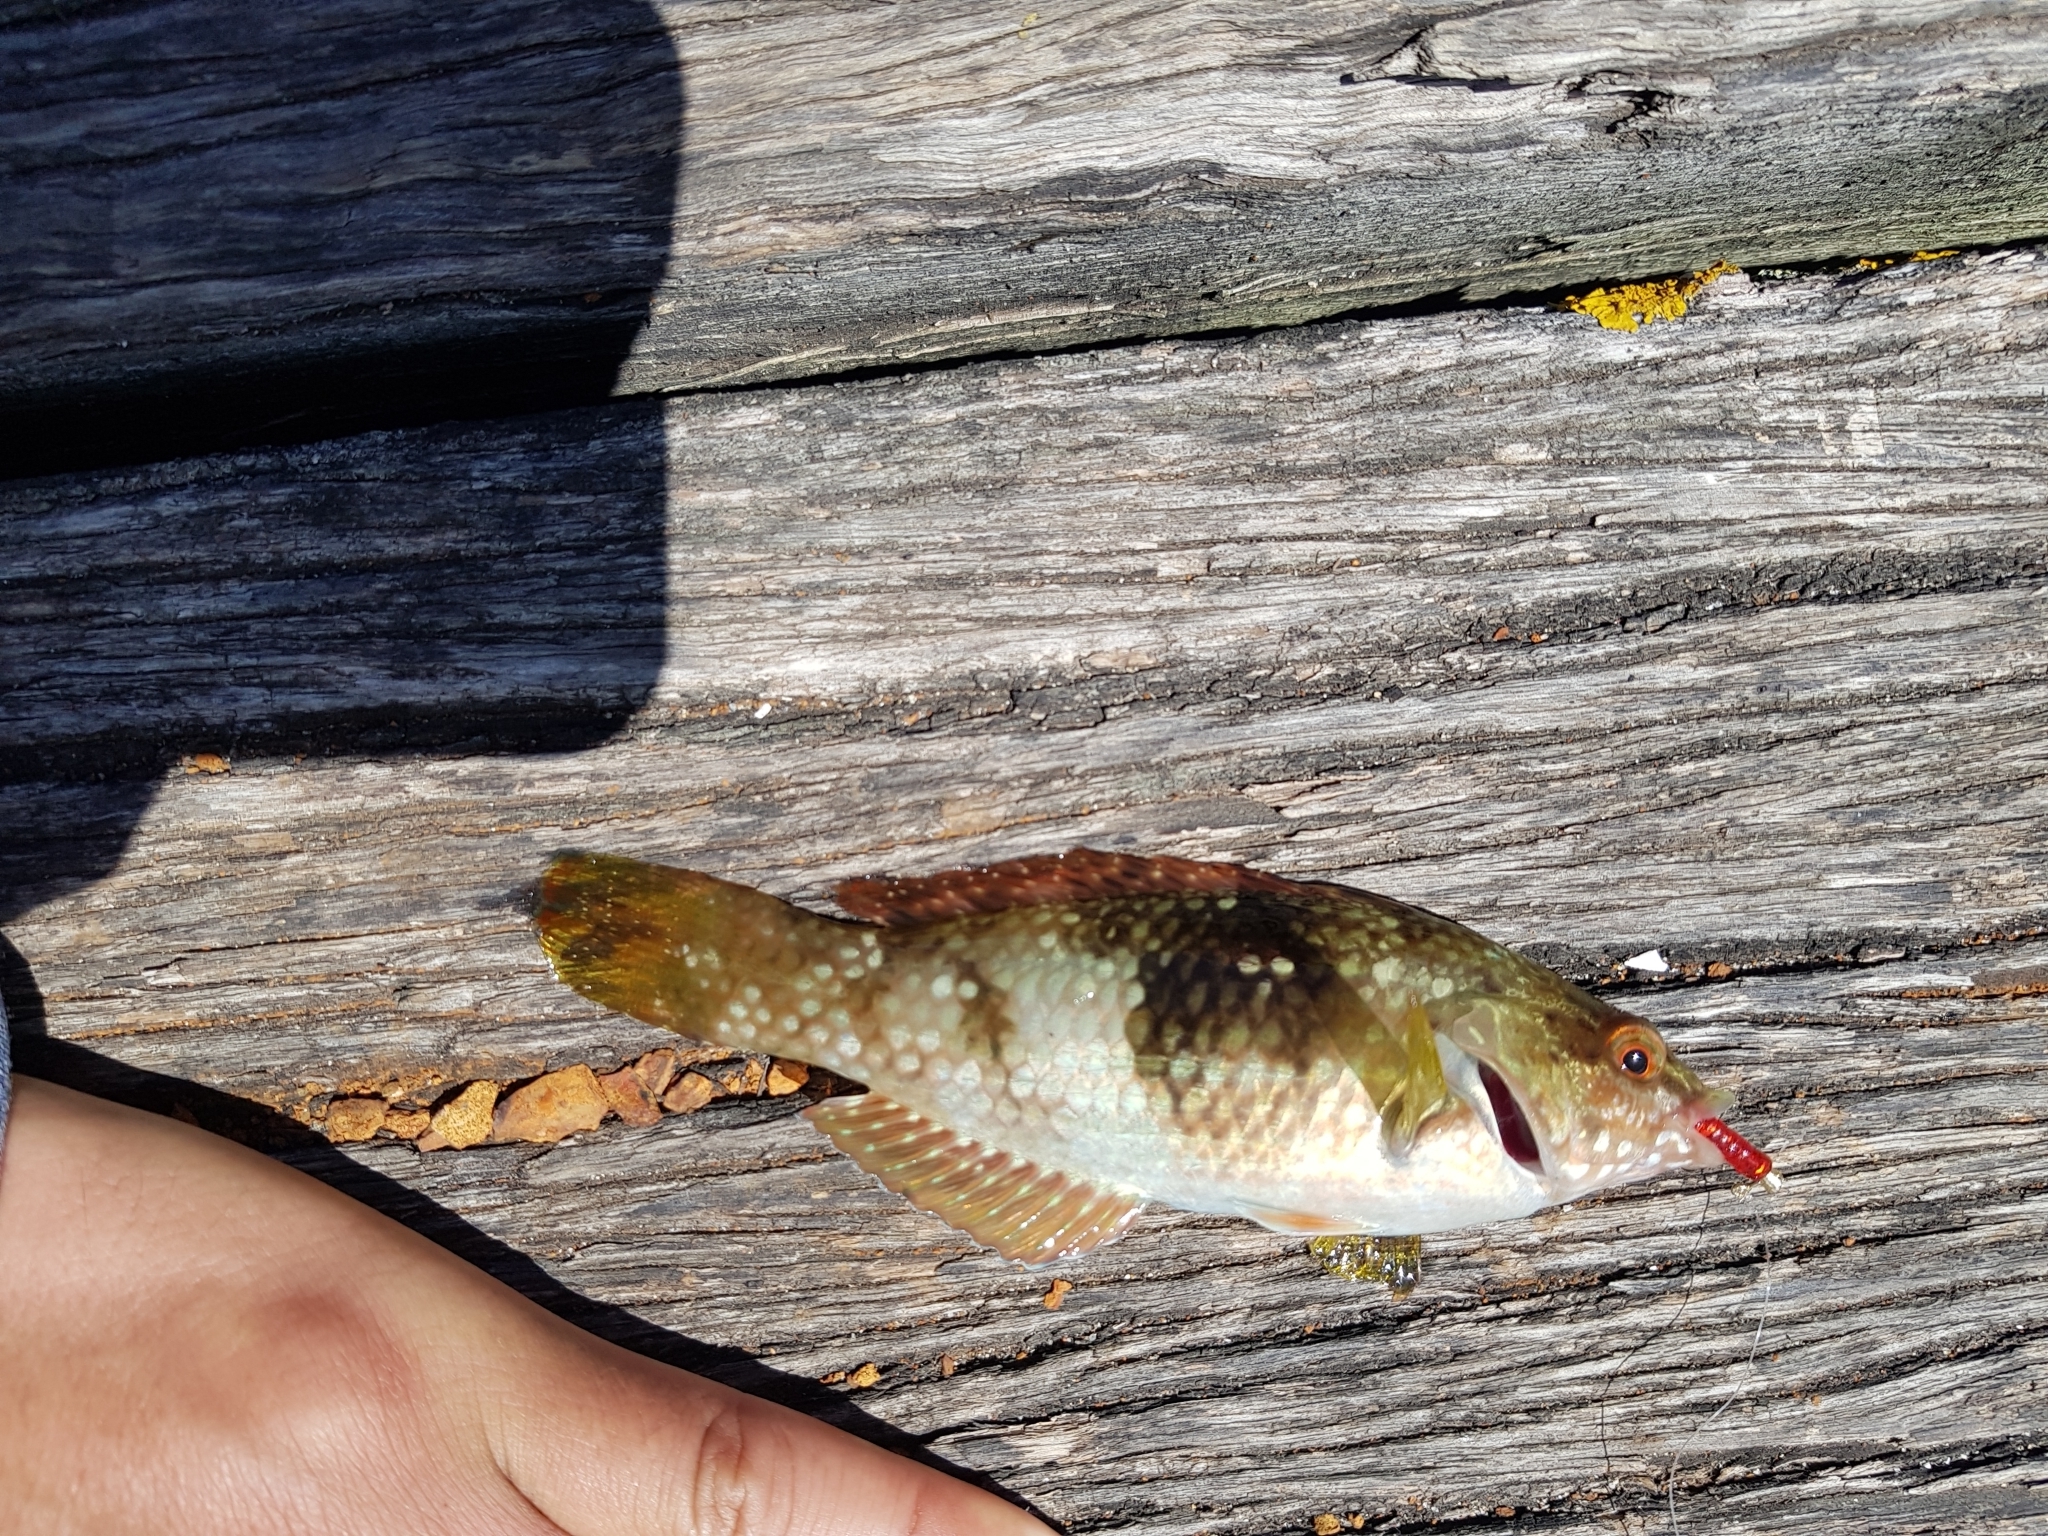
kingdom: Animalia
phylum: Chordata
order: Perciformes
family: Labridae
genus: Notolabrus
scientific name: Notolabrus tetricus
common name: Blue-throated parrotfish
